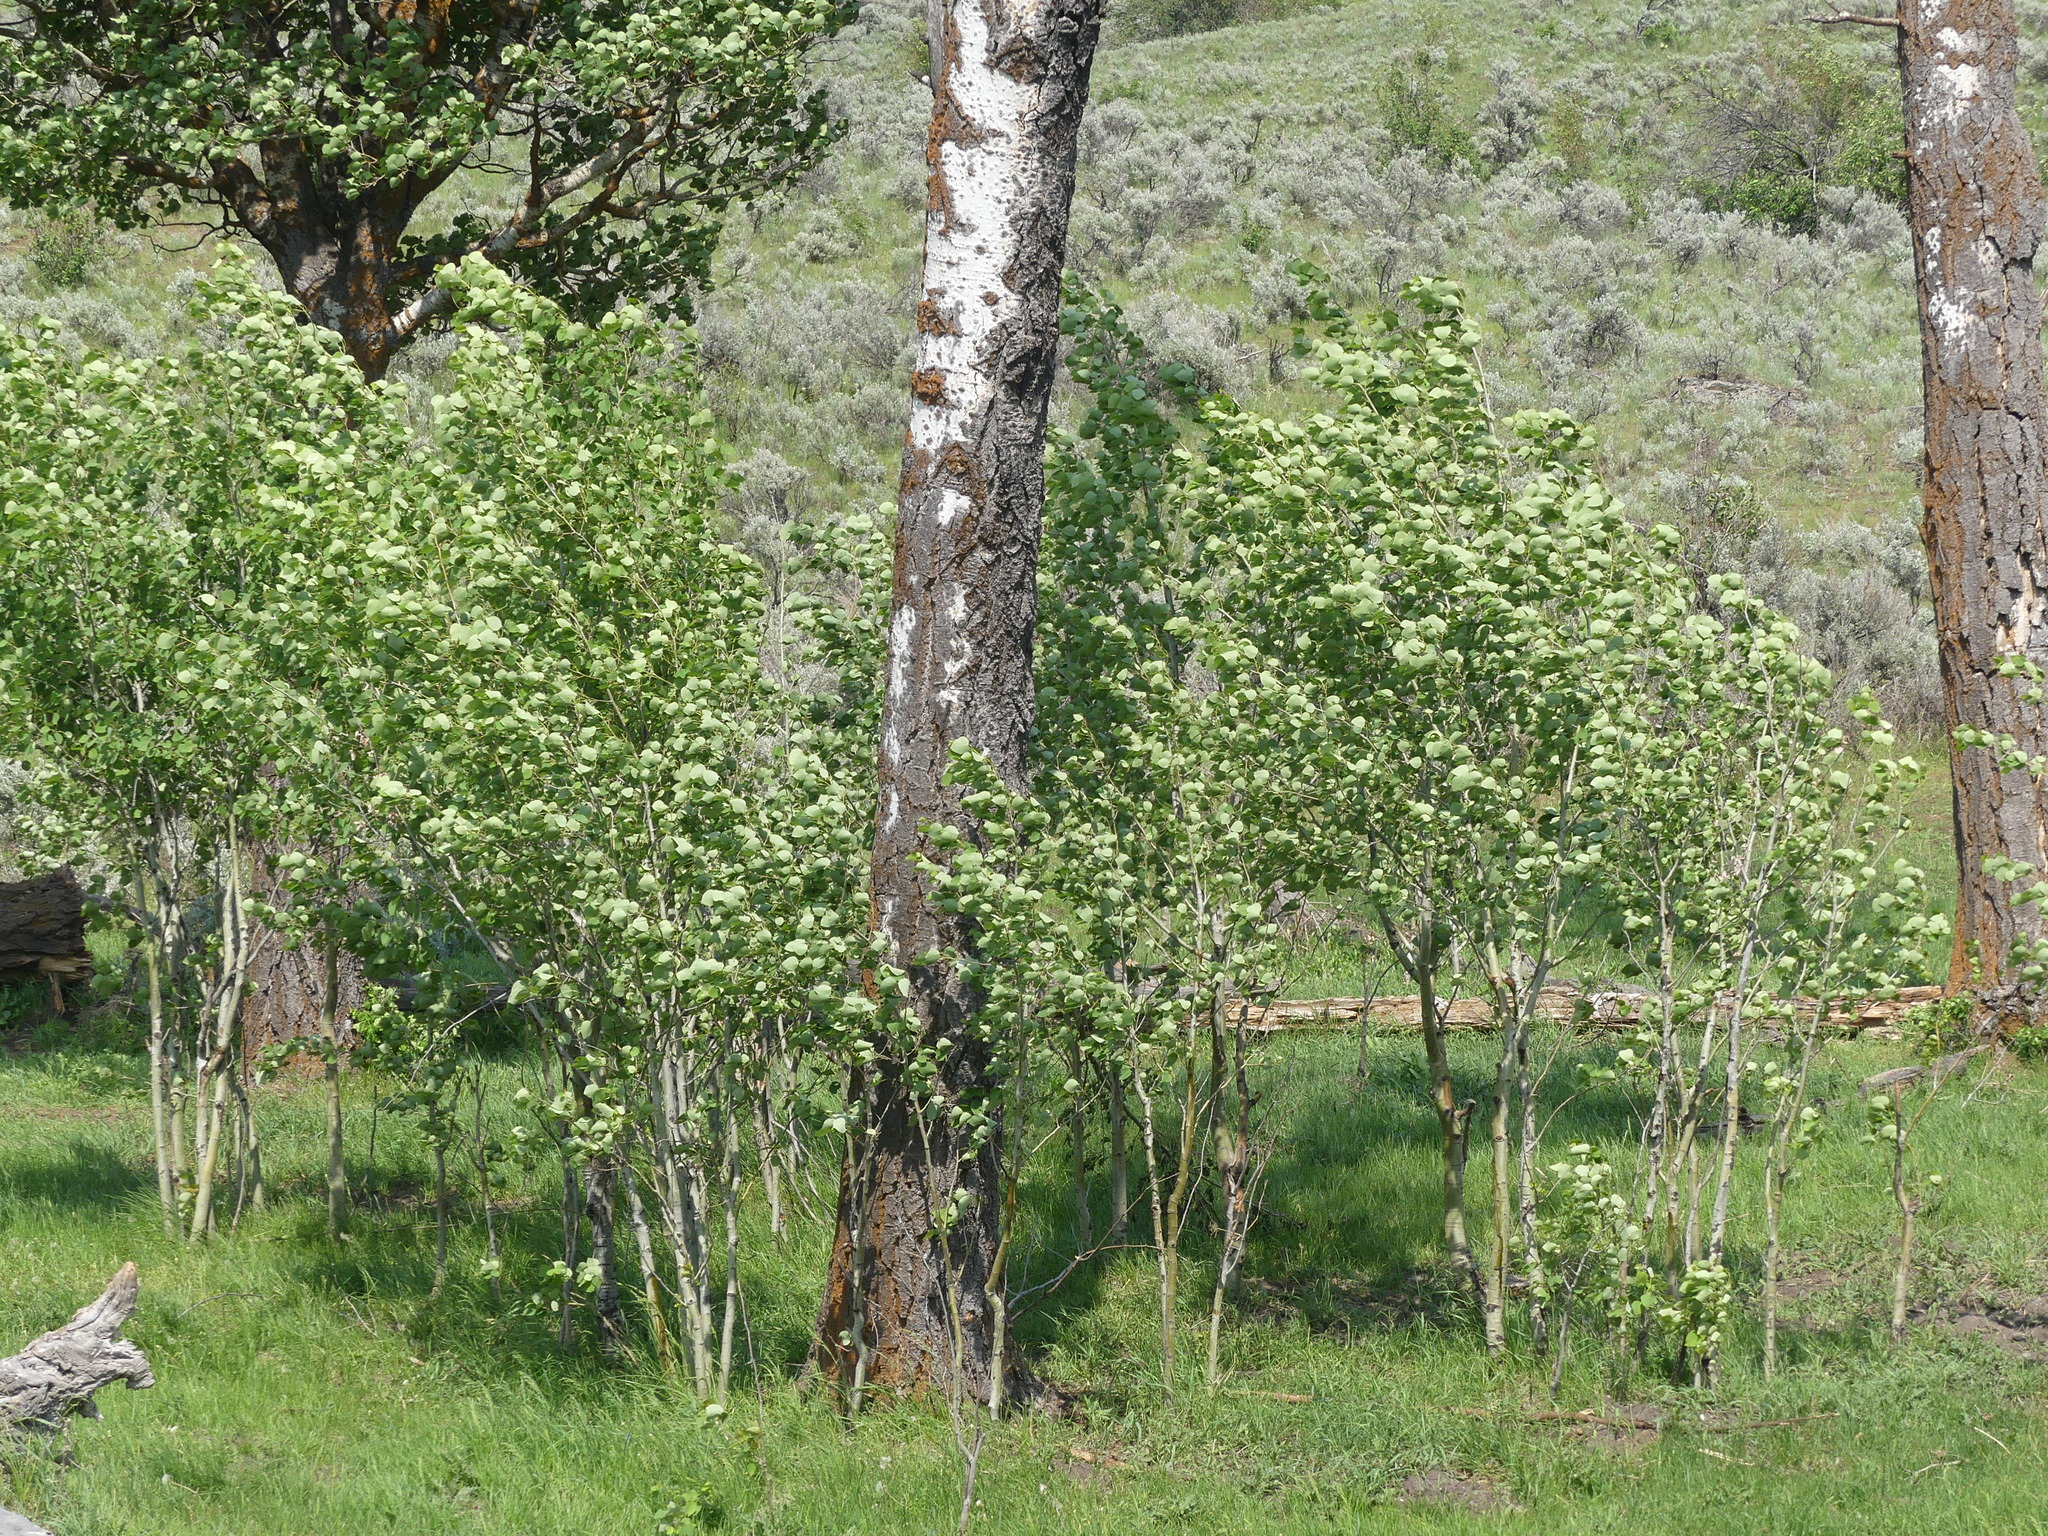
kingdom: Plantae
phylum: Tracheophyta
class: Magnoliopsida
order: Malpighiales
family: Salicaceae
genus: Populus
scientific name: Populus tremuloides
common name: Quaking aspen
